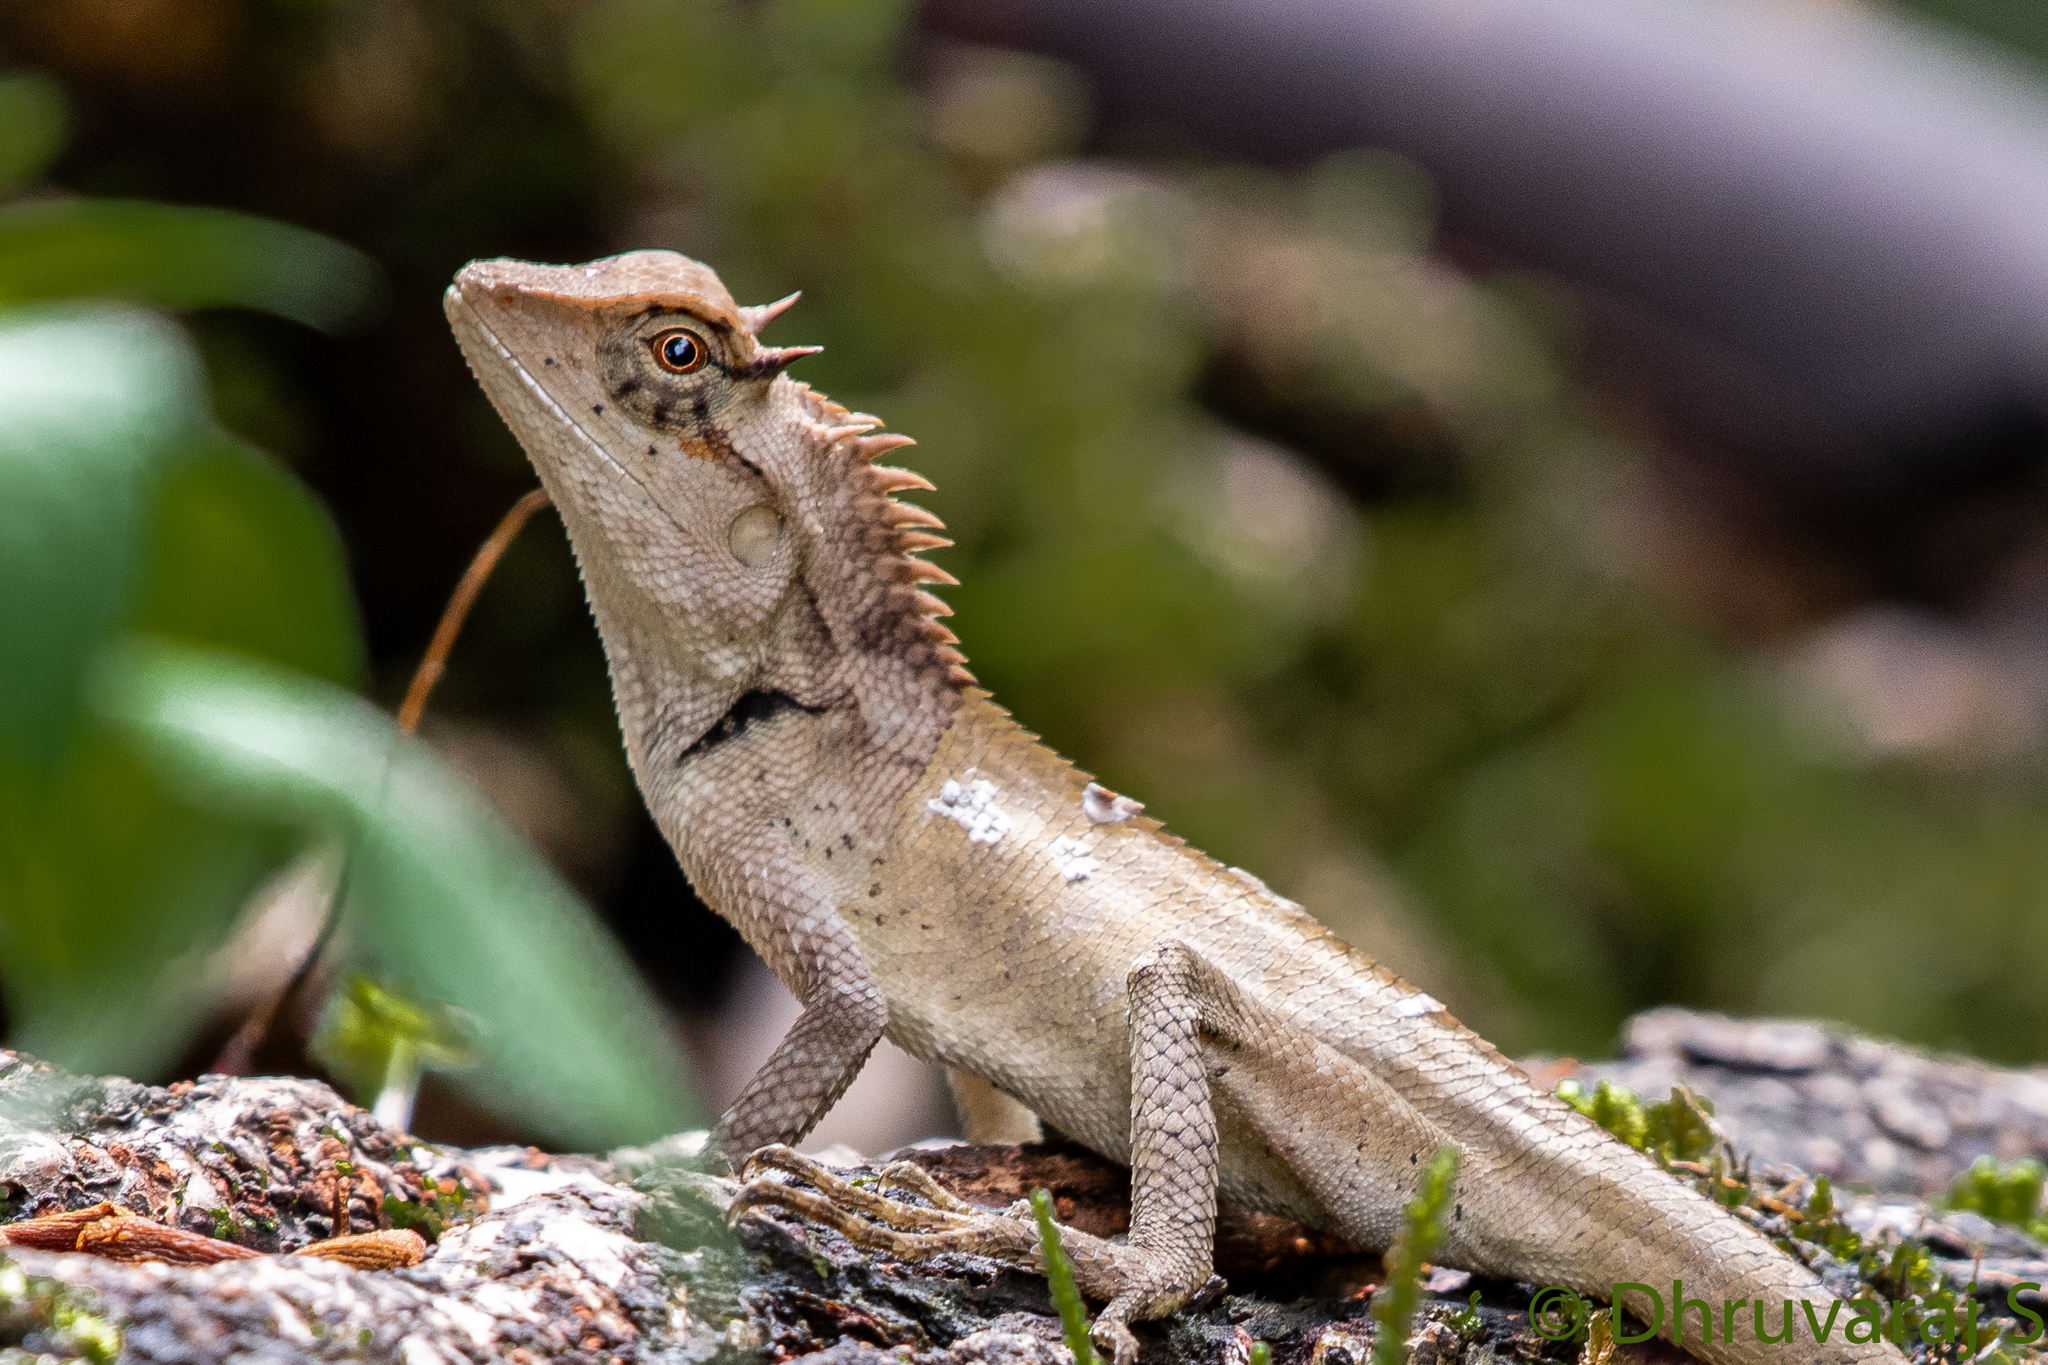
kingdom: Animalia
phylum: Chordata
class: Squamata
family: Agamidae
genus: Calotes
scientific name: Calotes emma
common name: Thailand bloodsucker
